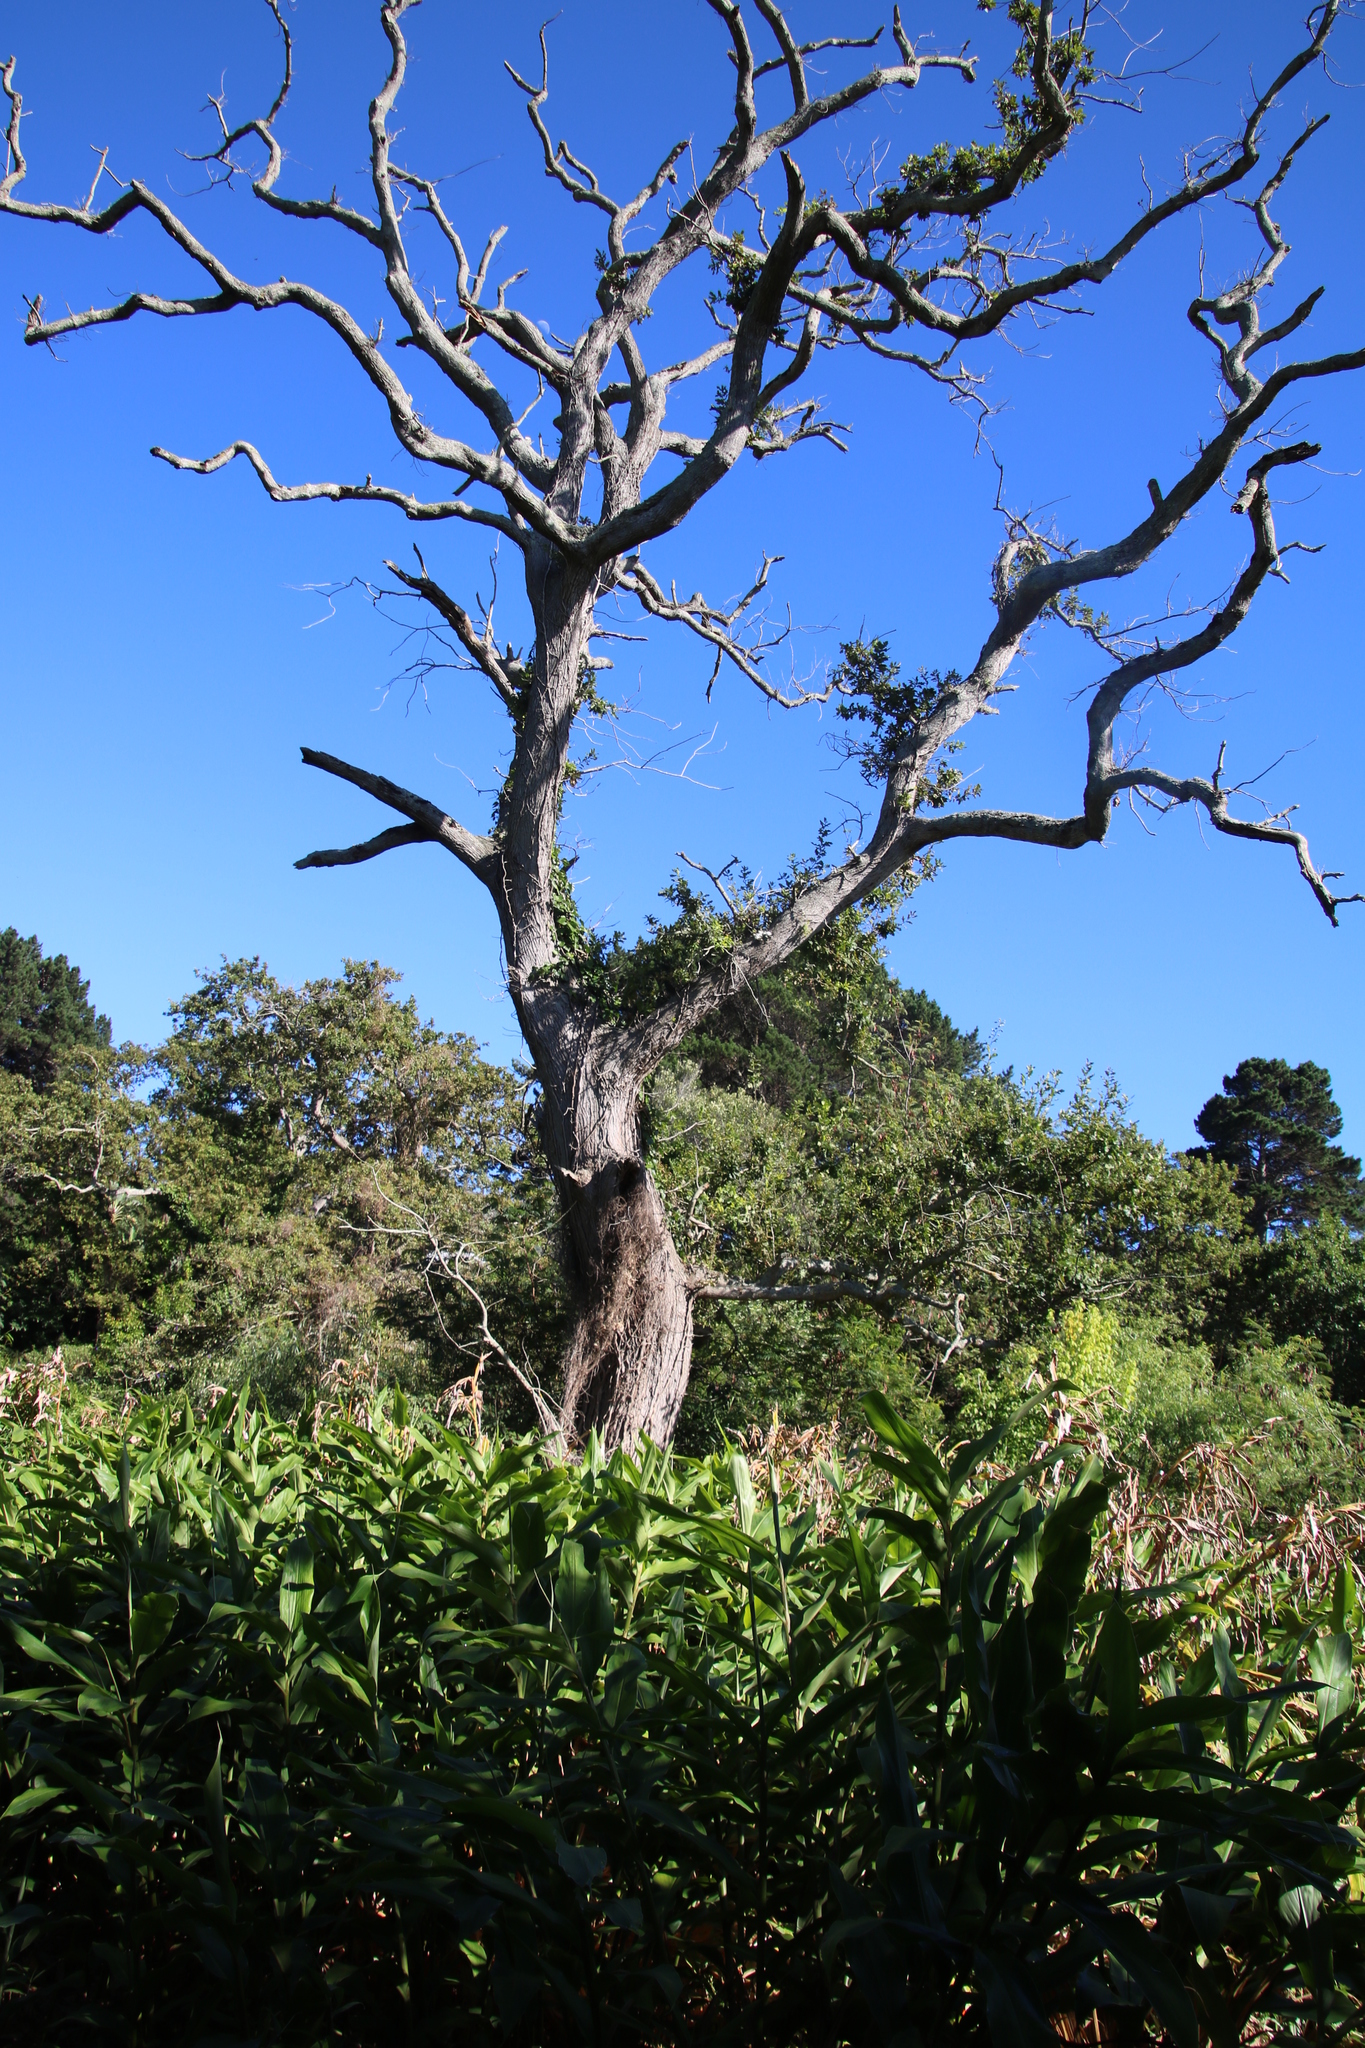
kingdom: Plantae
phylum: Tracheophyta
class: Magnoliopsida
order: Fagales
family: Fagaceae
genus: Quercus
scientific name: Quercus robur
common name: Pedunculate oak
